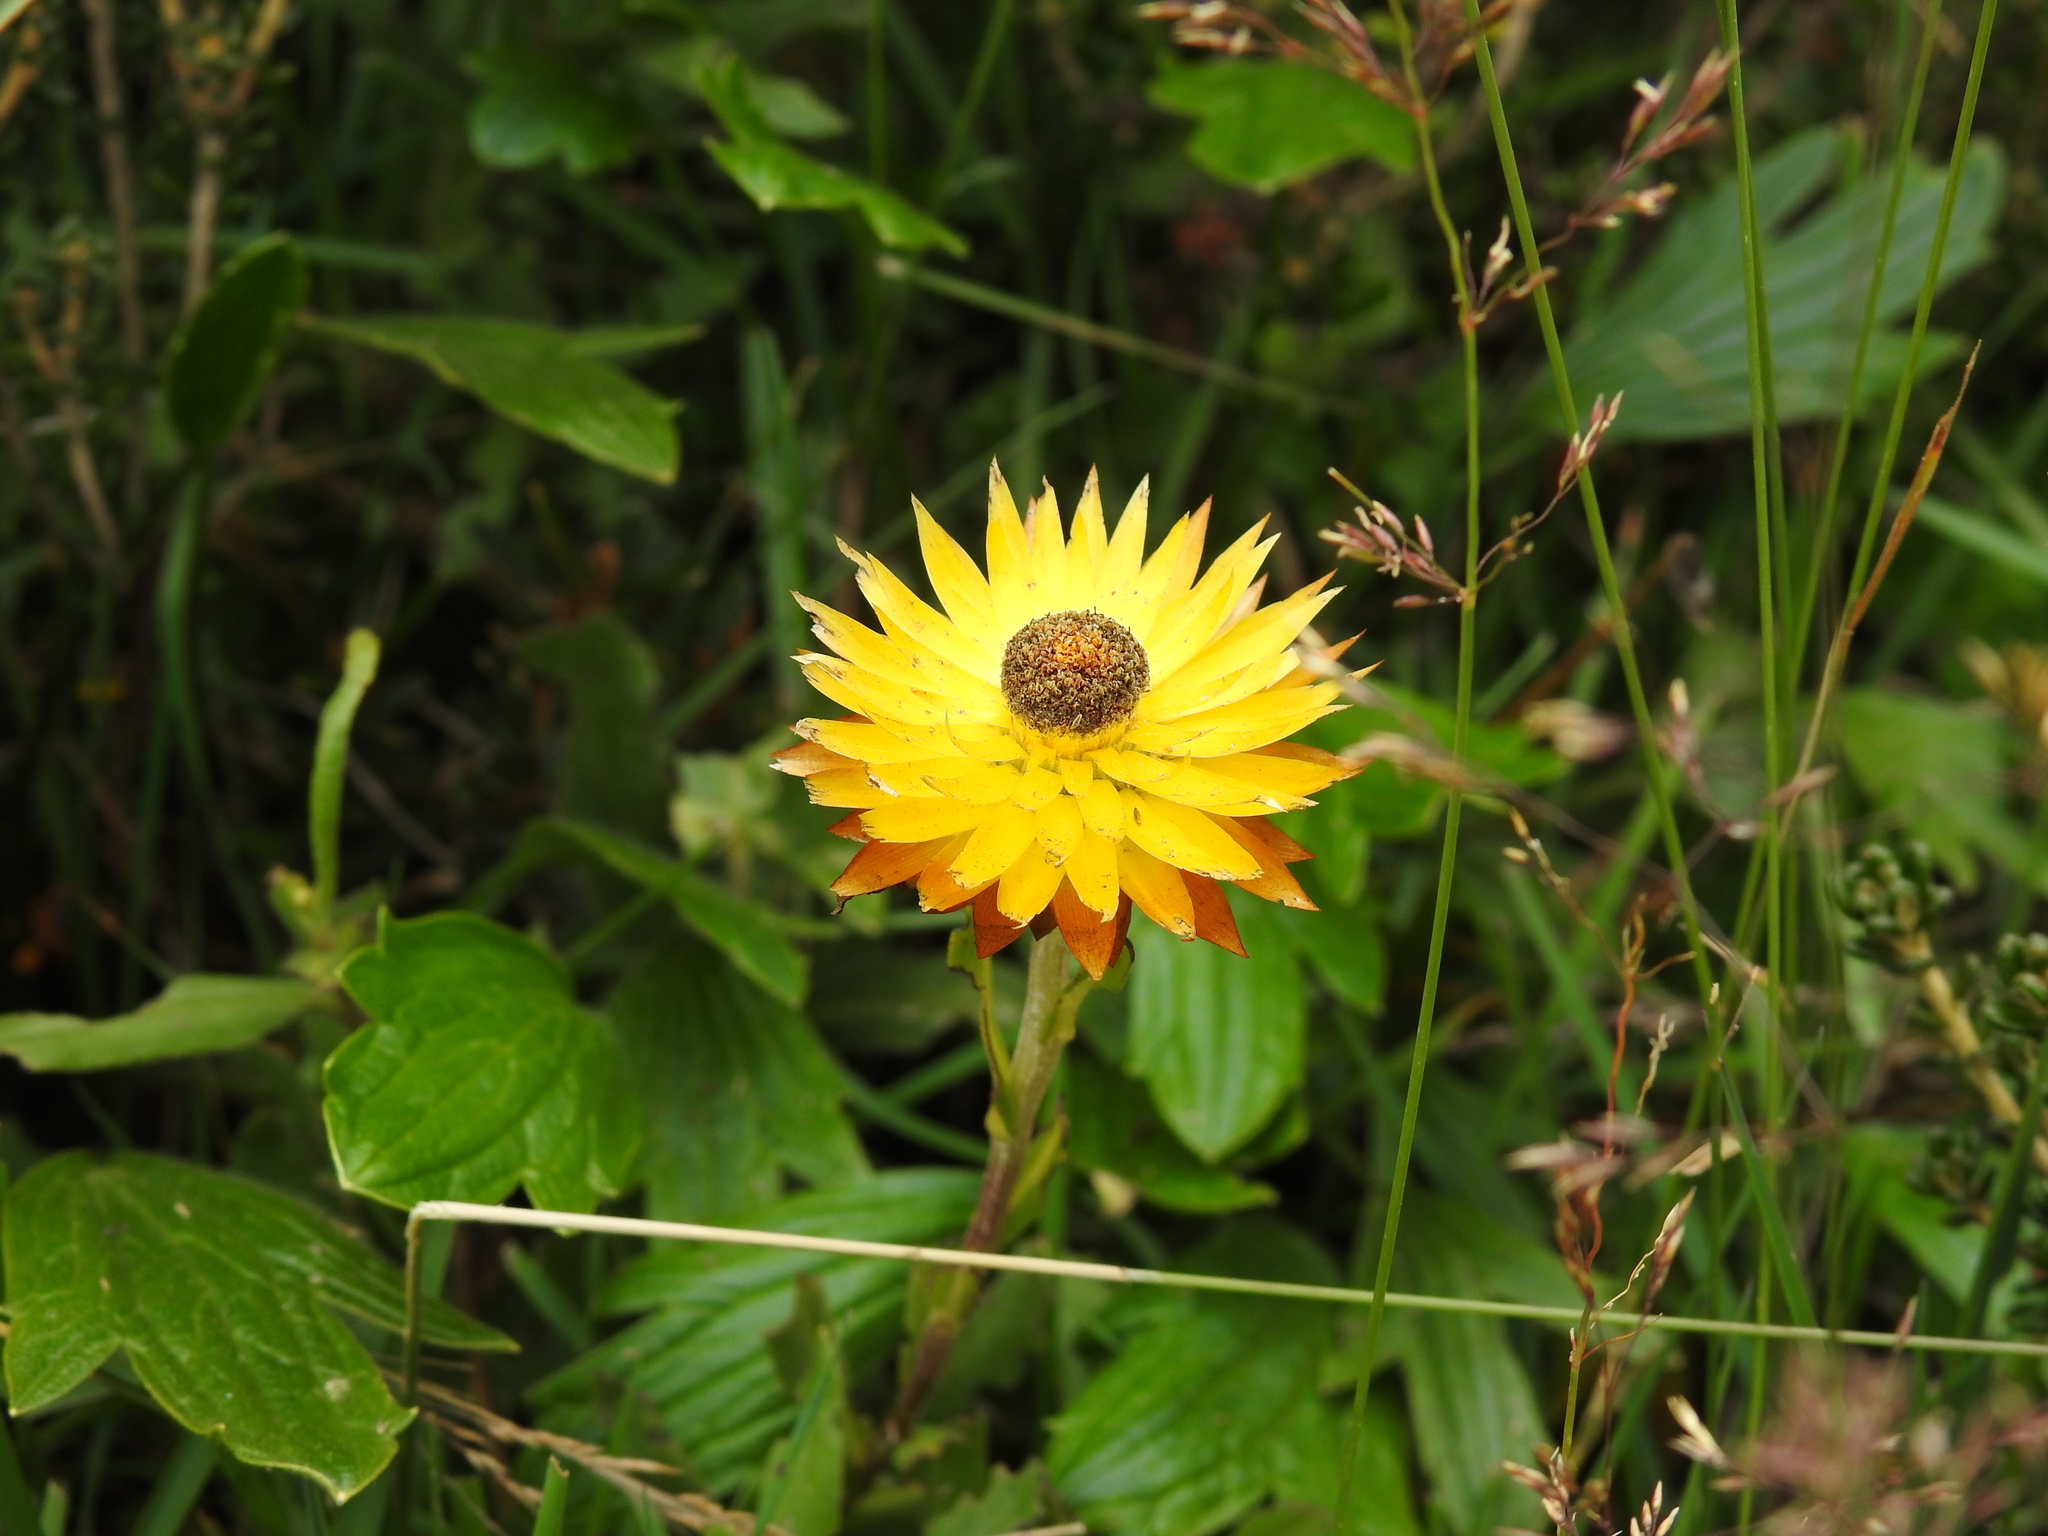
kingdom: Plantae
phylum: Tracheophyta
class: Magnoliopsida
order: Asterales
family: Asteraceae
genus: Xerochrysum
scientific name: Xerochrysum subundulatum
